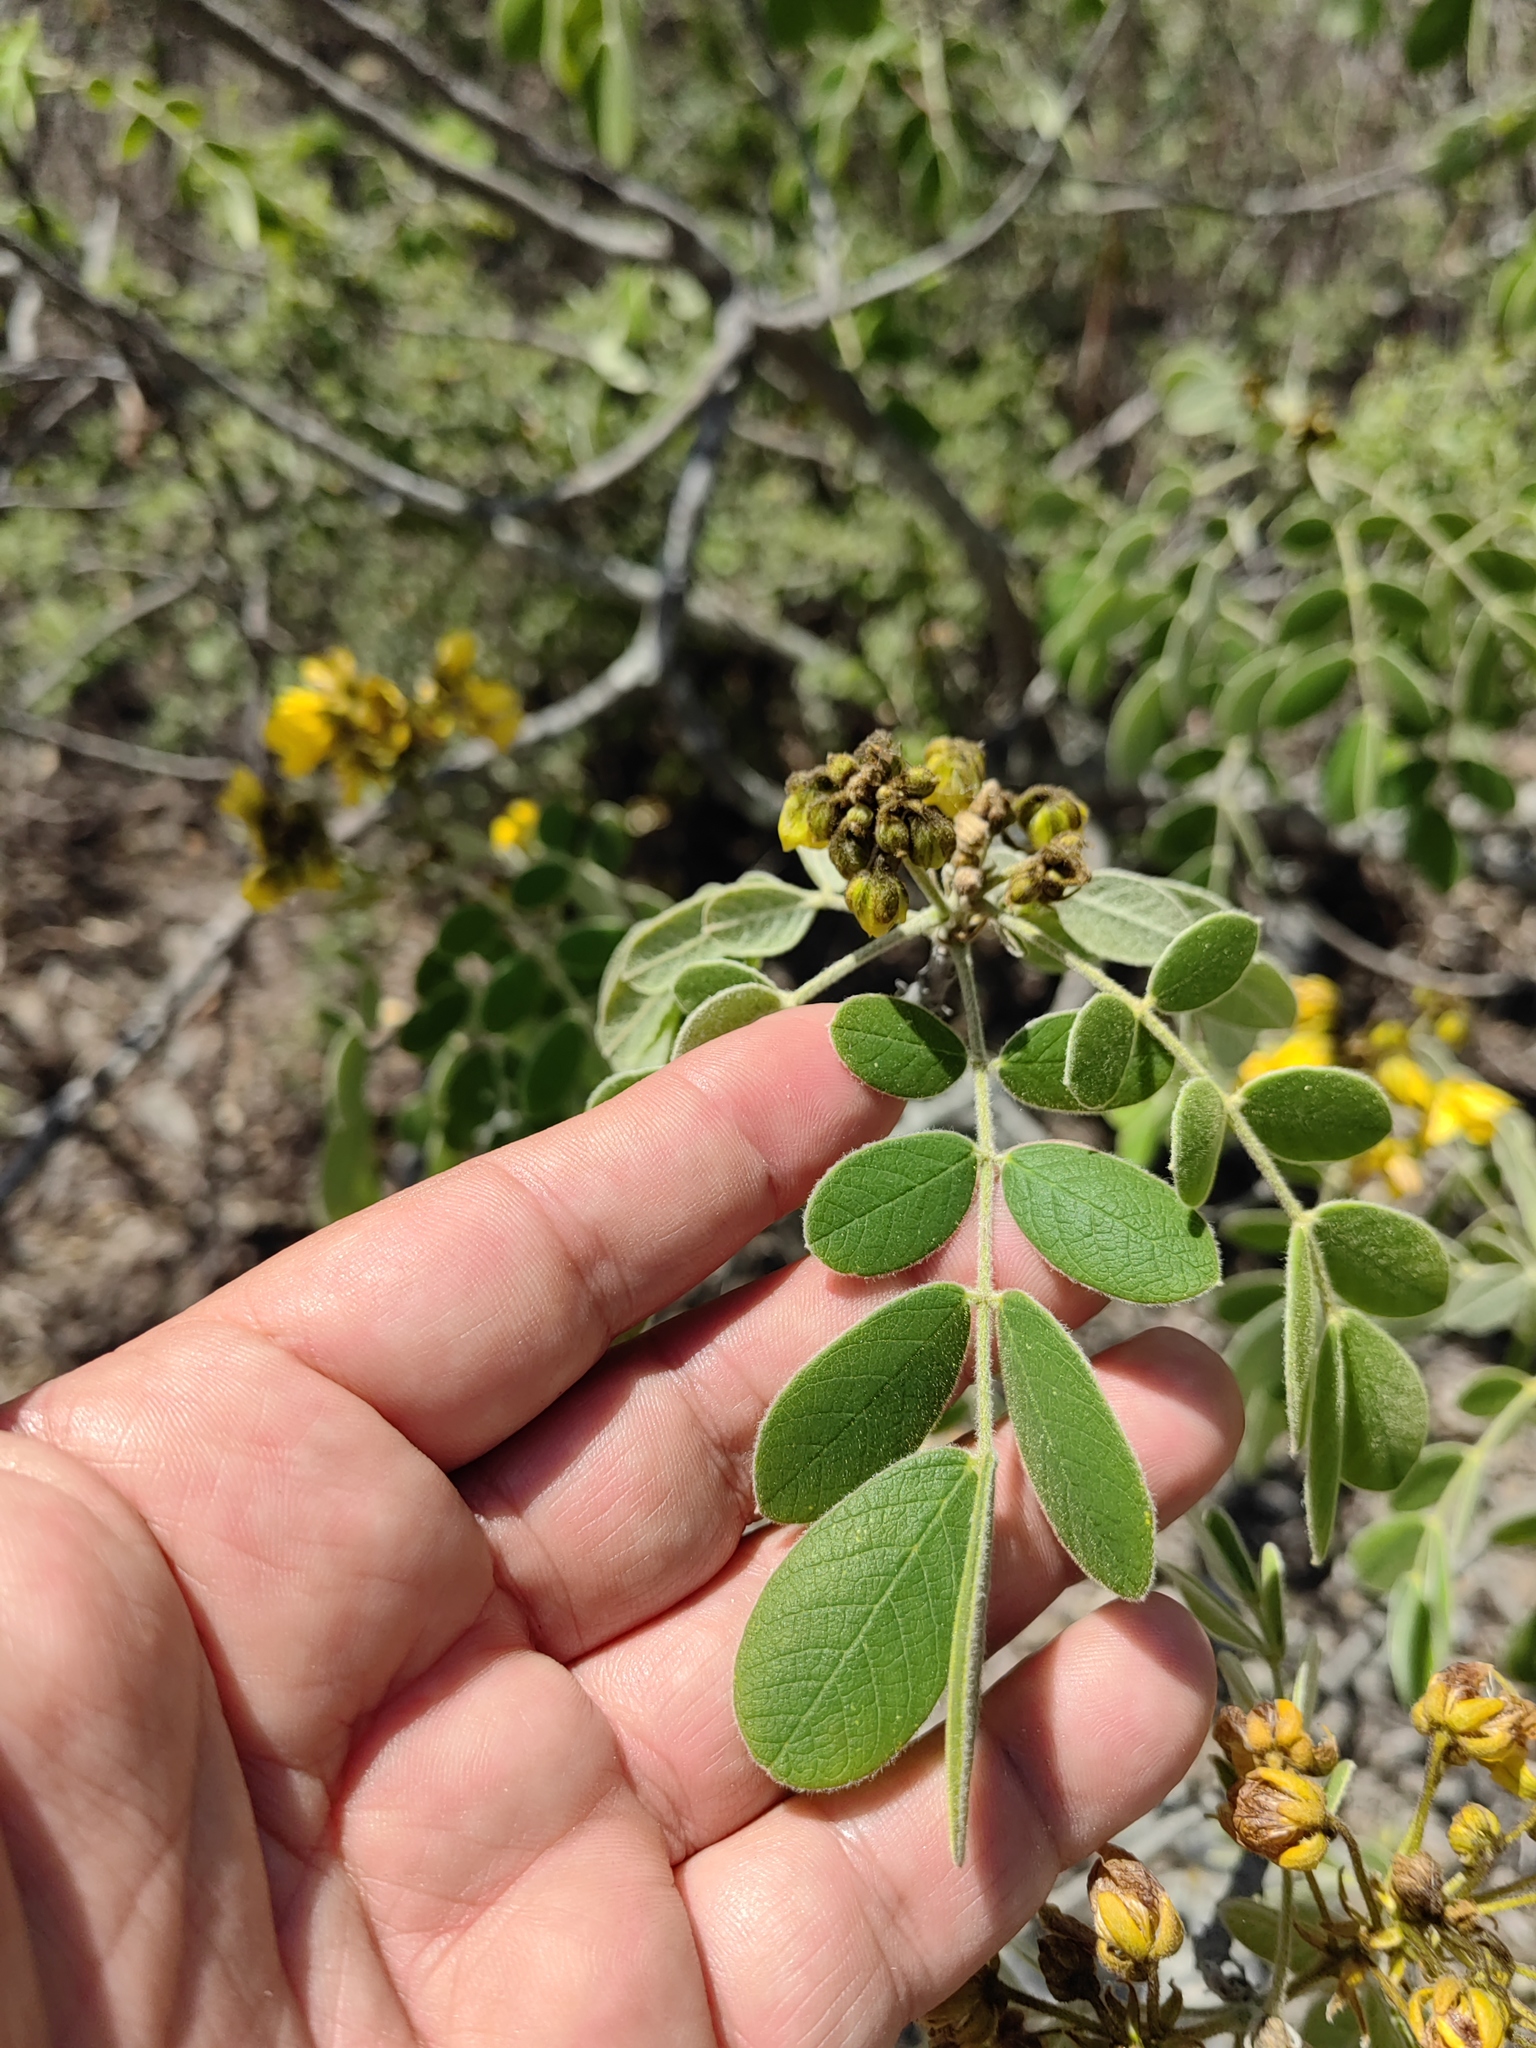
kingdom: Plantae
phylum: Tracheophyta
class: Magnoliopsida
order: Fabales
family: Fabaceae
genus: Senna
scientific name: Senna atomaria
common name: Flor de san jose
